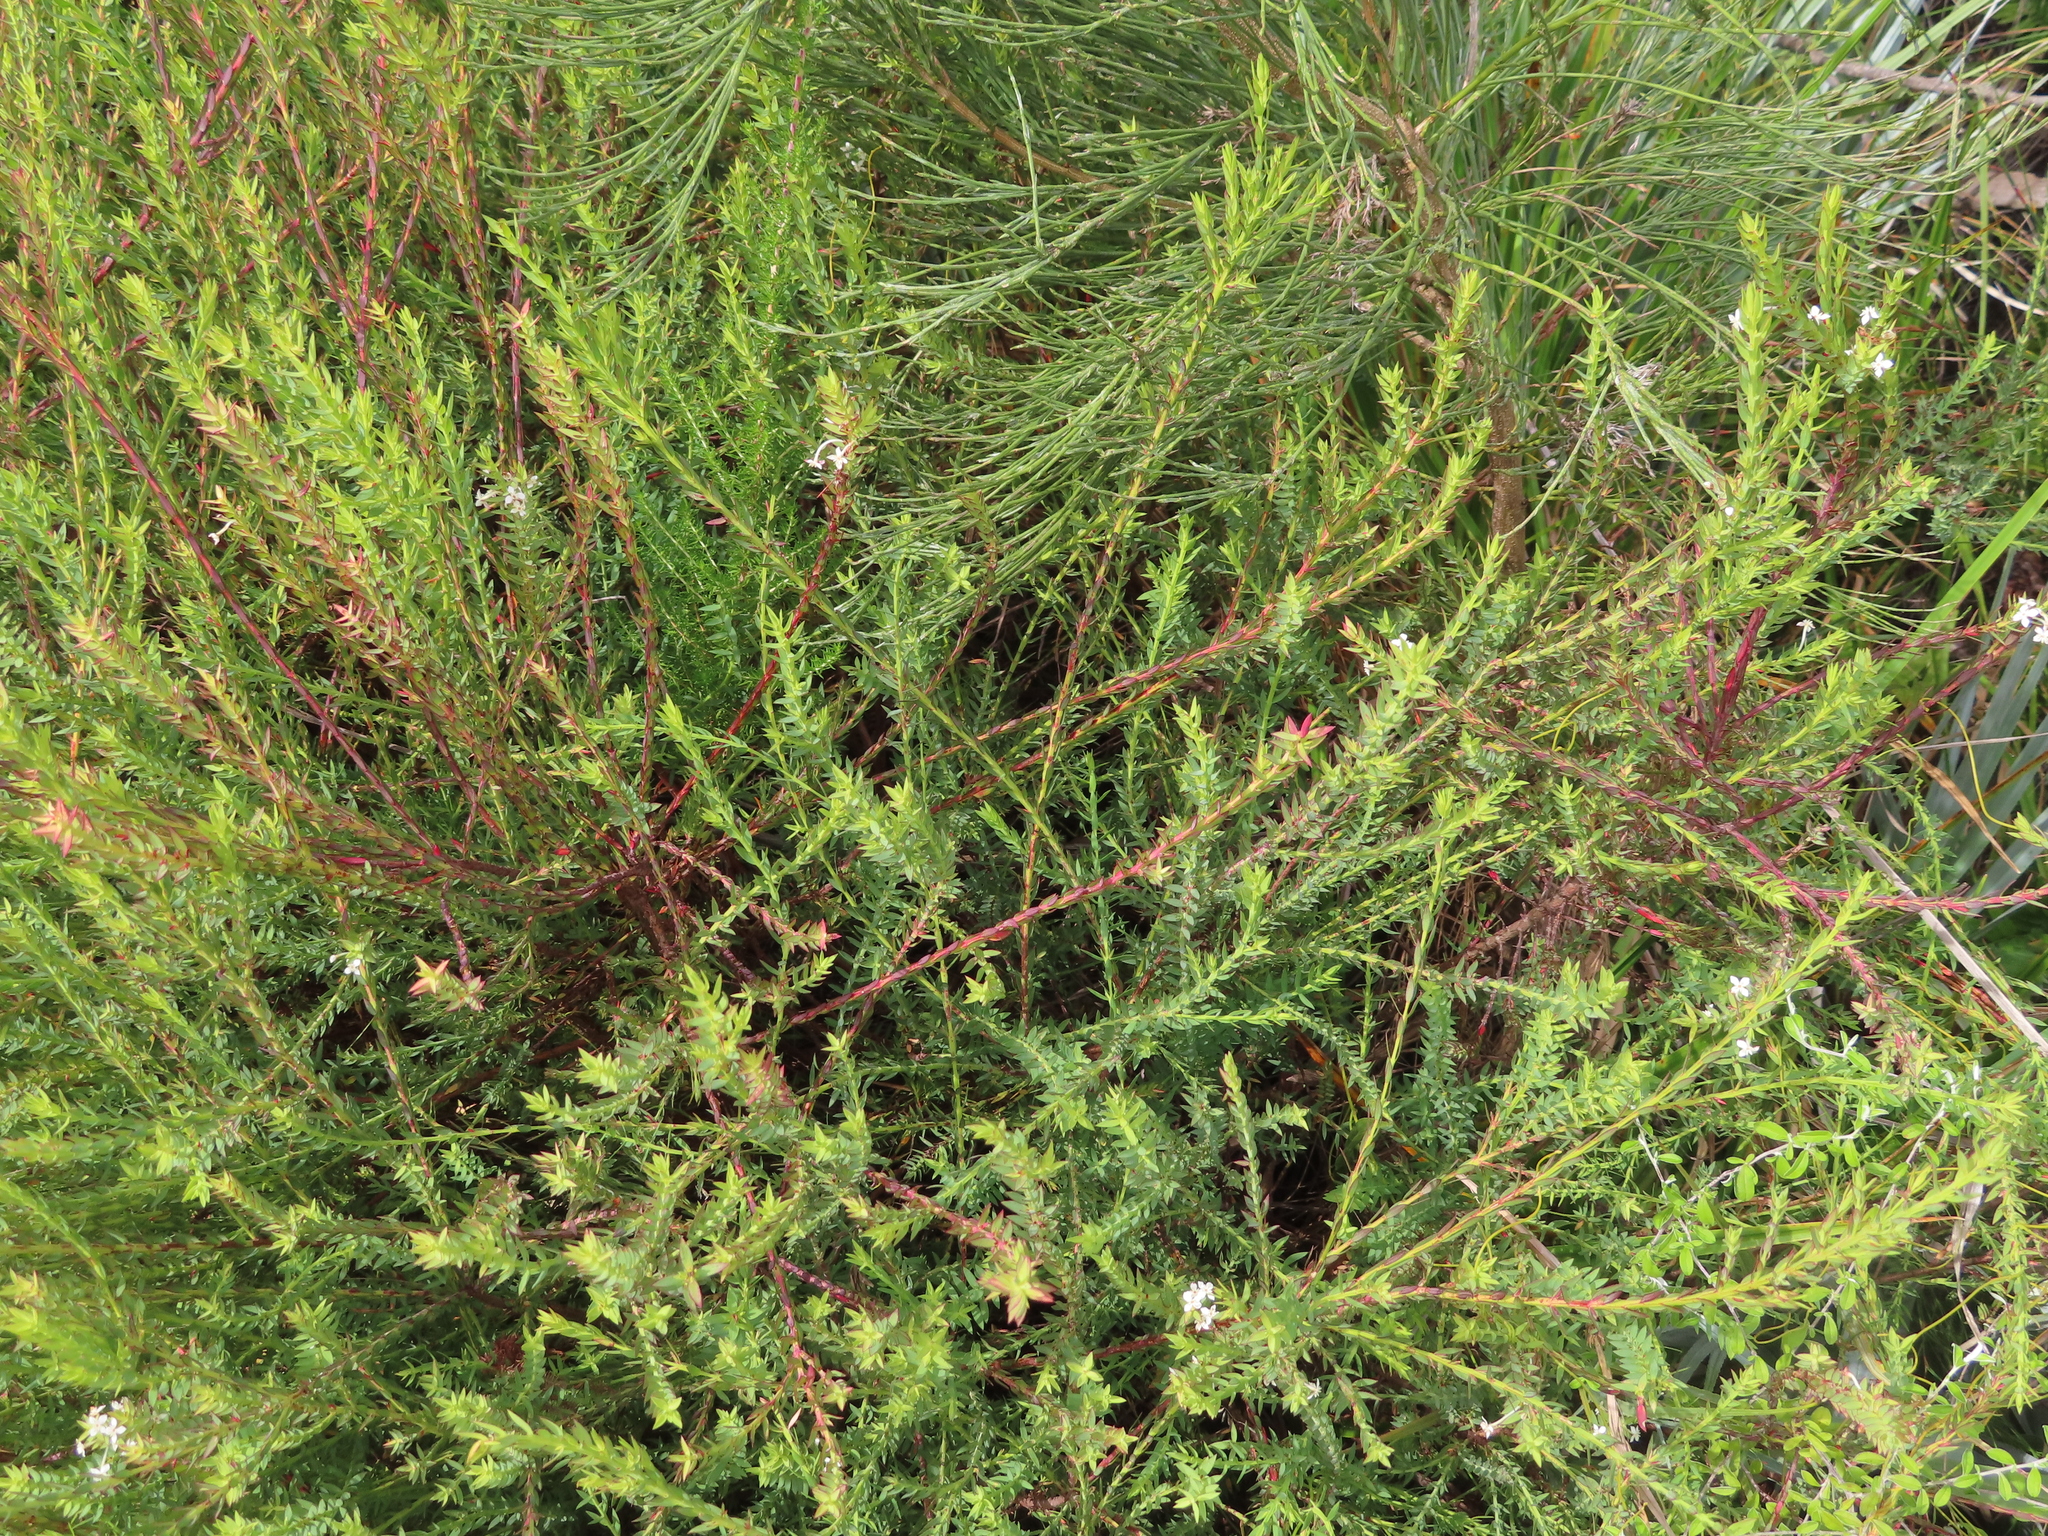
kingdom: Plantae
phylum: Tracheophyta
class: Magnoliopsida
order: Malvales
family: Thymelaeaceae
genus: Struthiola
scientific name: Struthiola myrsinites
